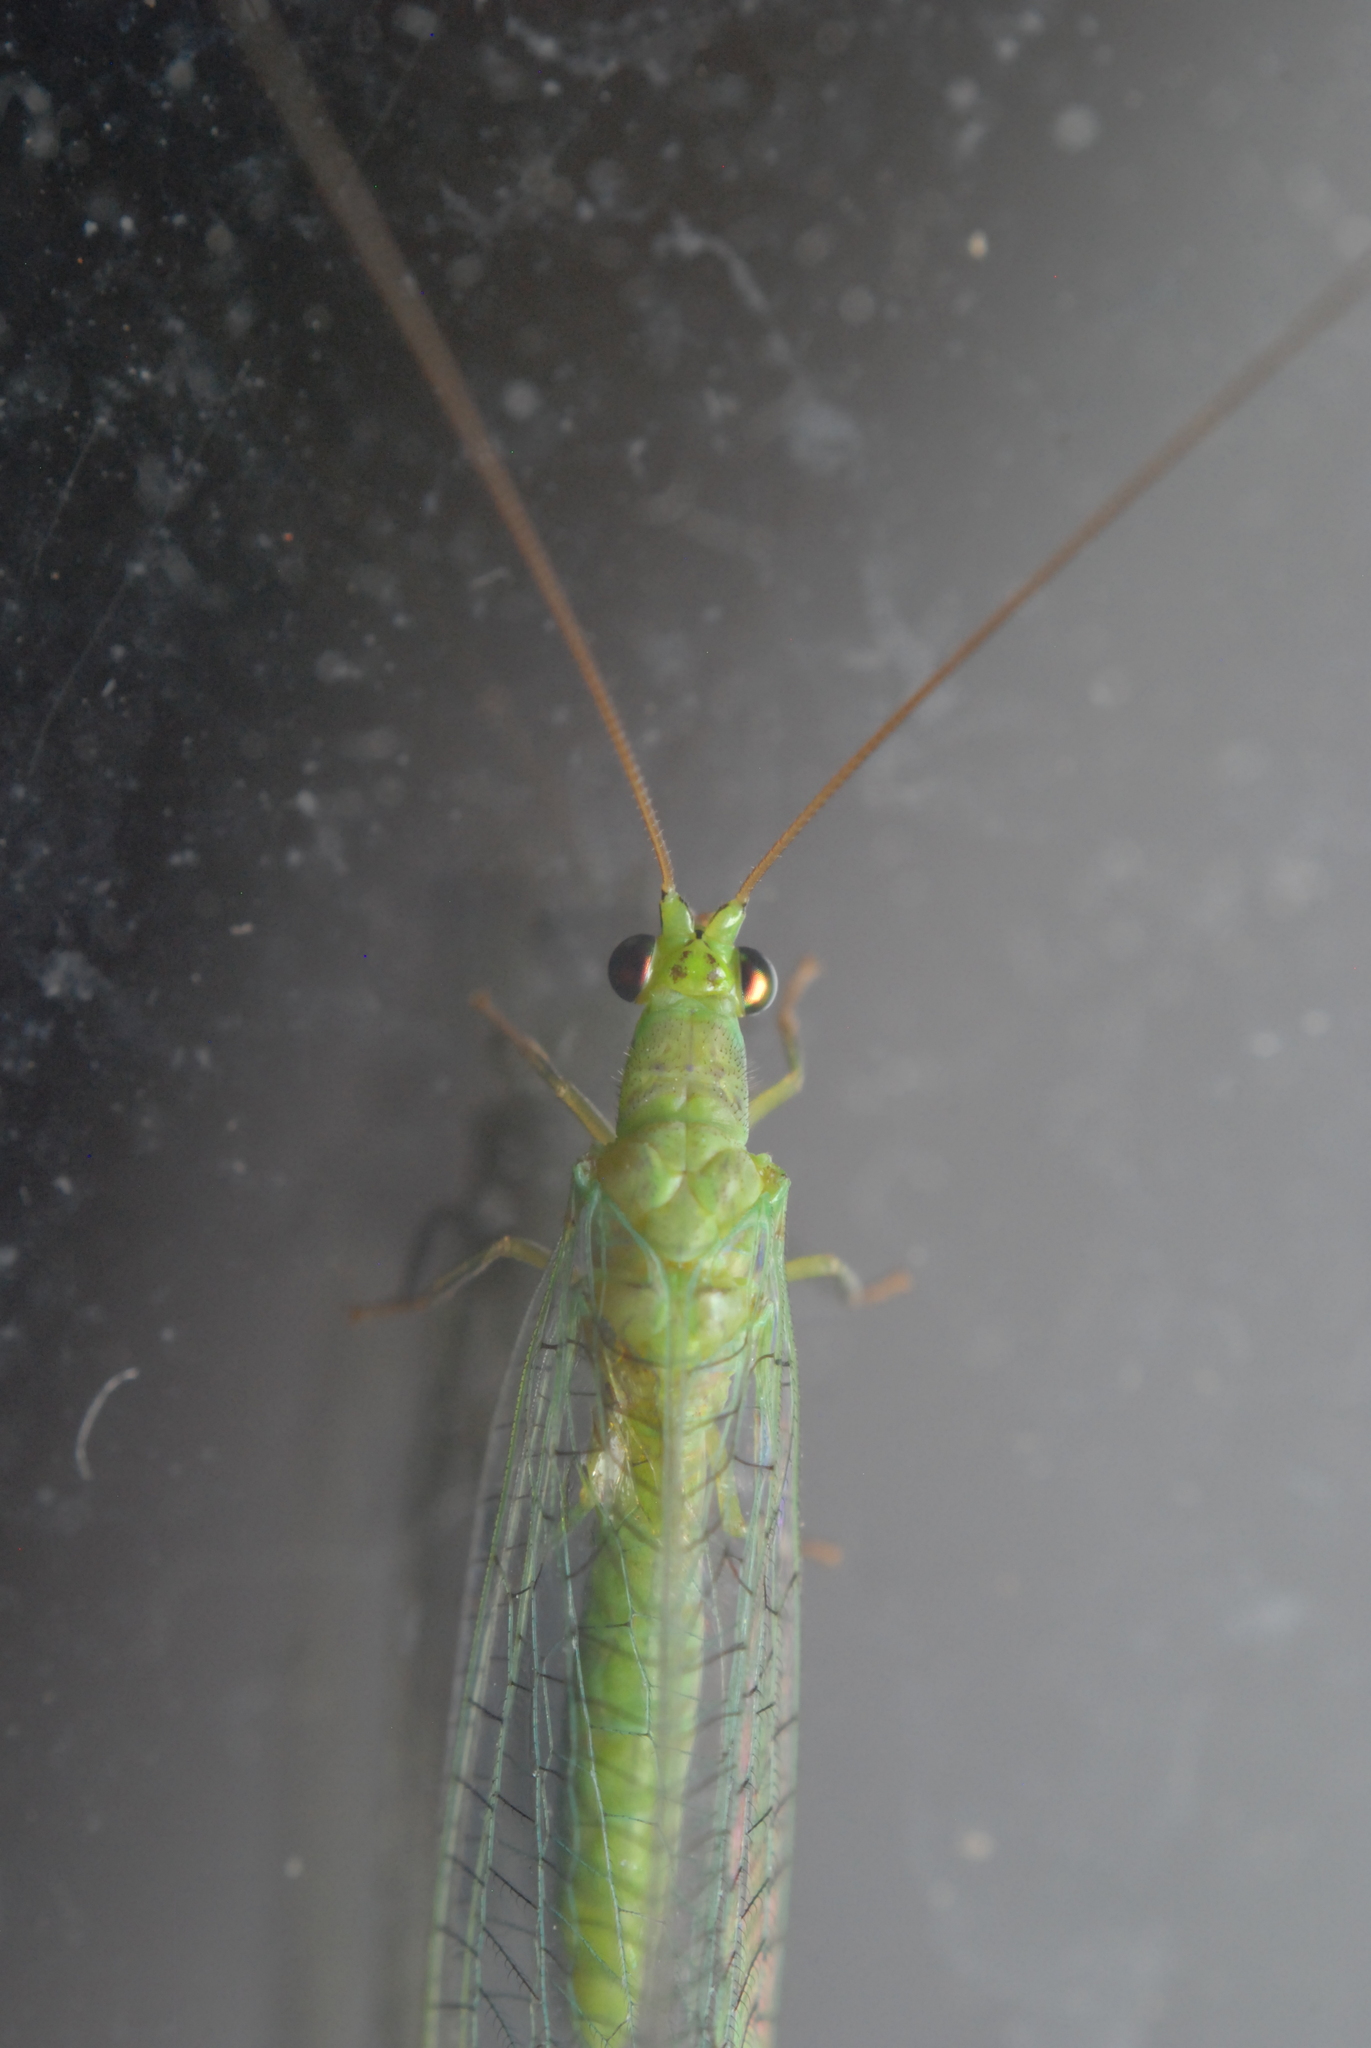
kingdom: Animalia
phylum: Arthropoda
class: Insecta
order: Neuroptera
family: Chrysopidae
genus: Mallada
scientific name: Mallada signatus
